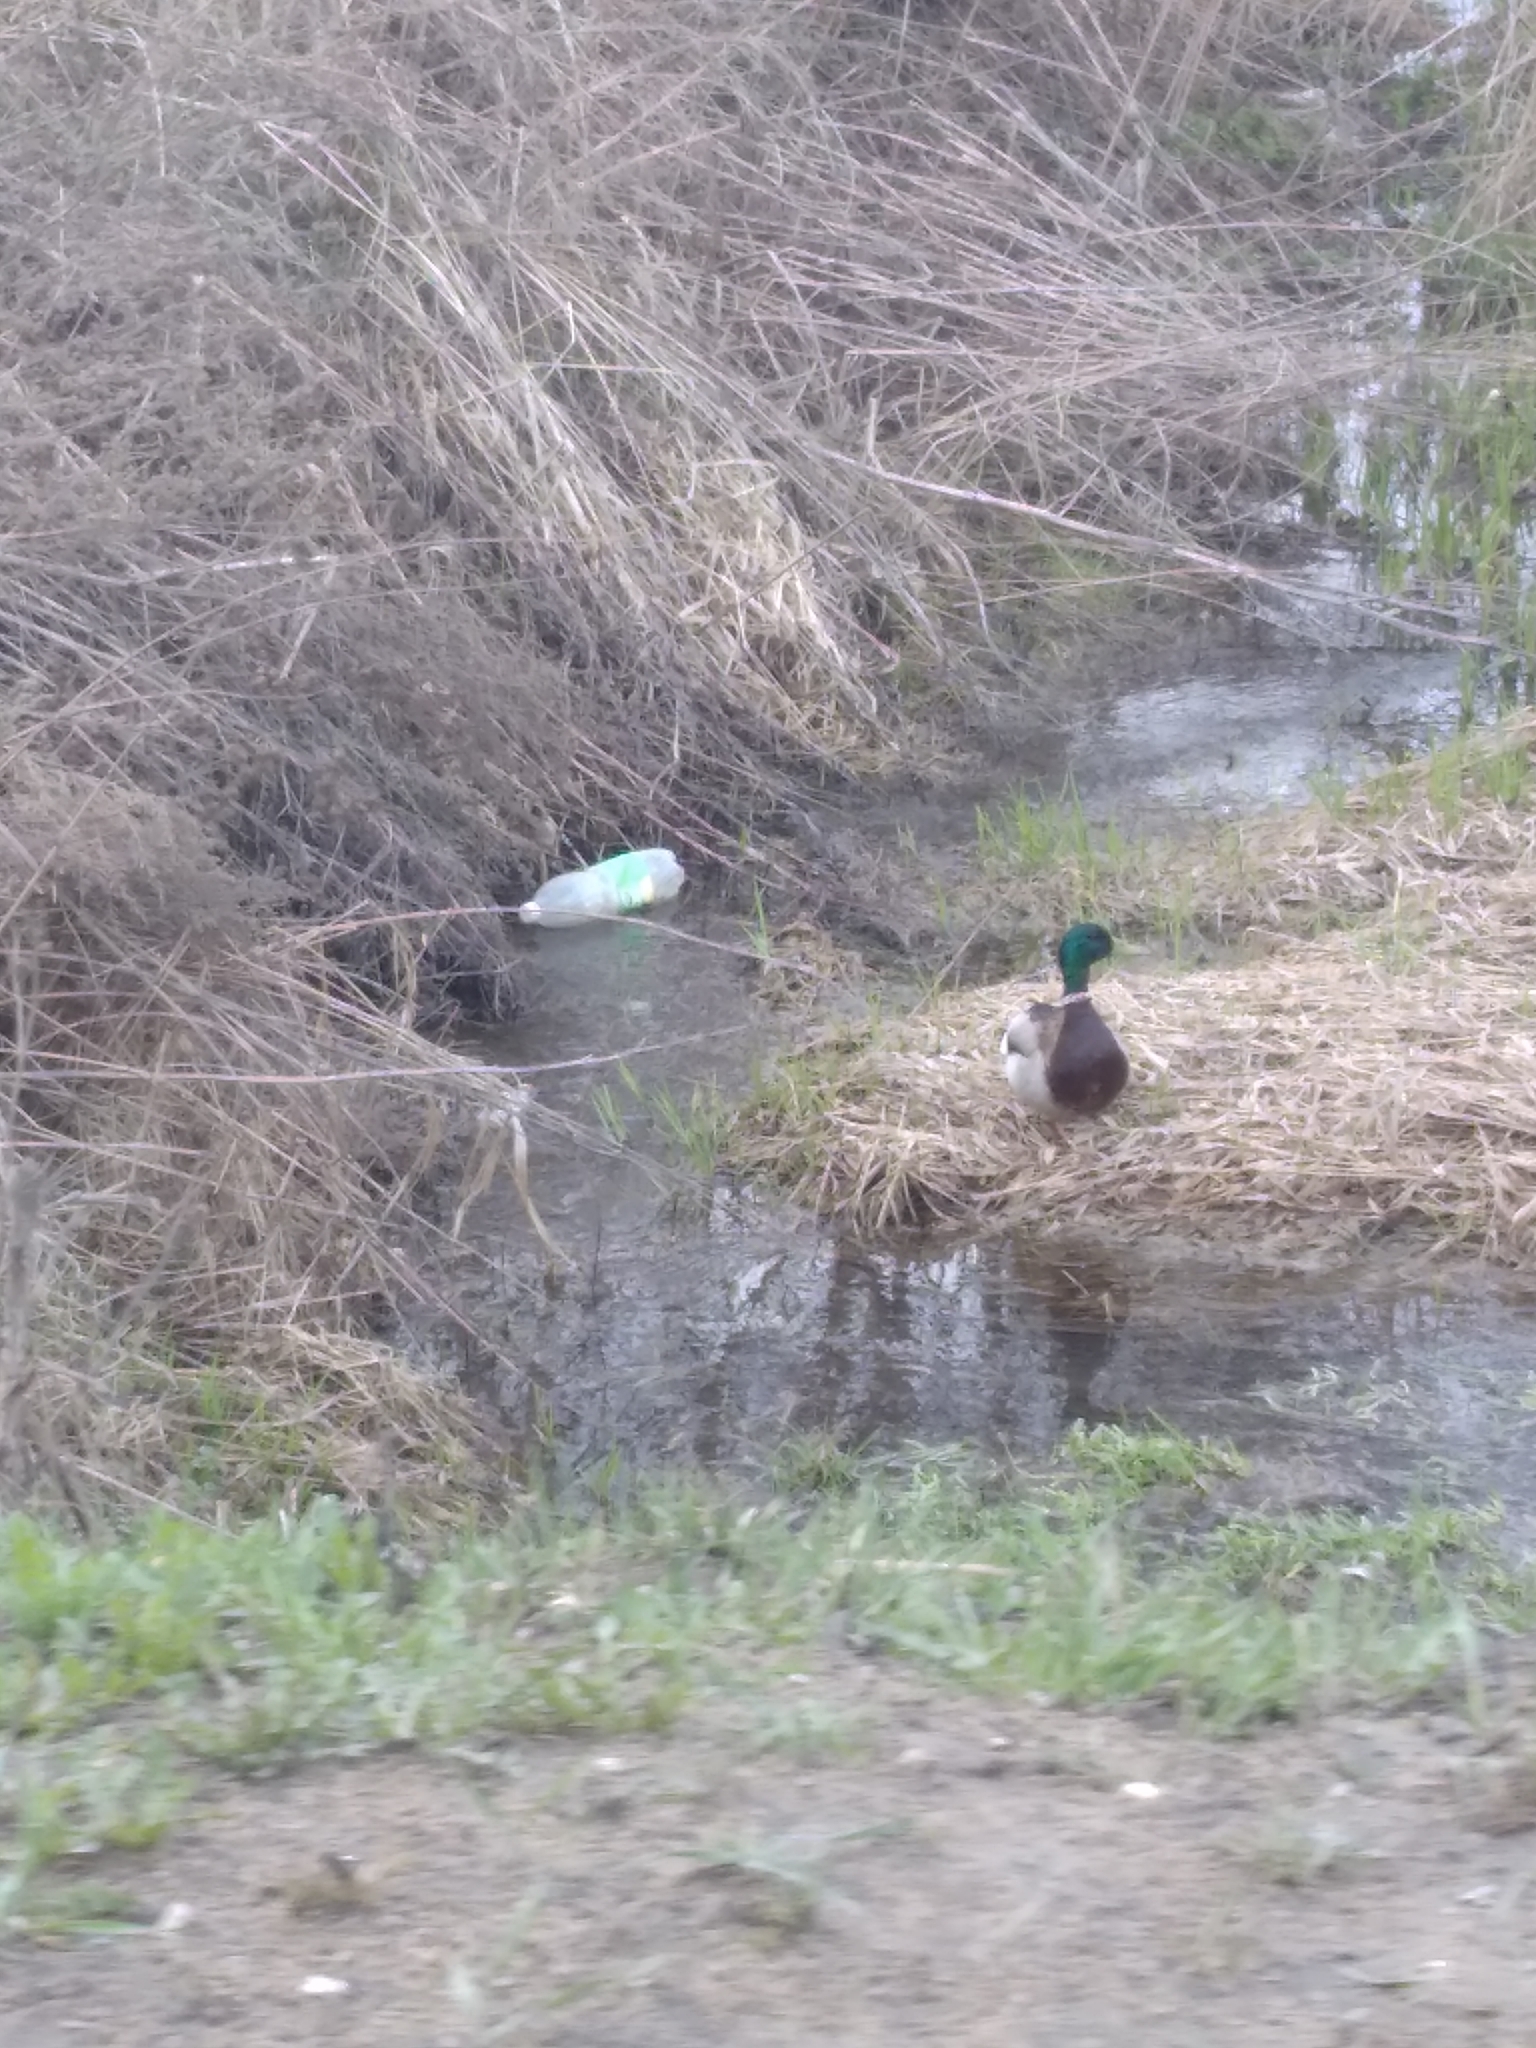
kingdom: Animalia
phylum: Chordata
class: Aves
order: Anseriformes
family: Anatidae
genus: Anas
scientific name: Anas platyrhynchos
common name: Mallard
